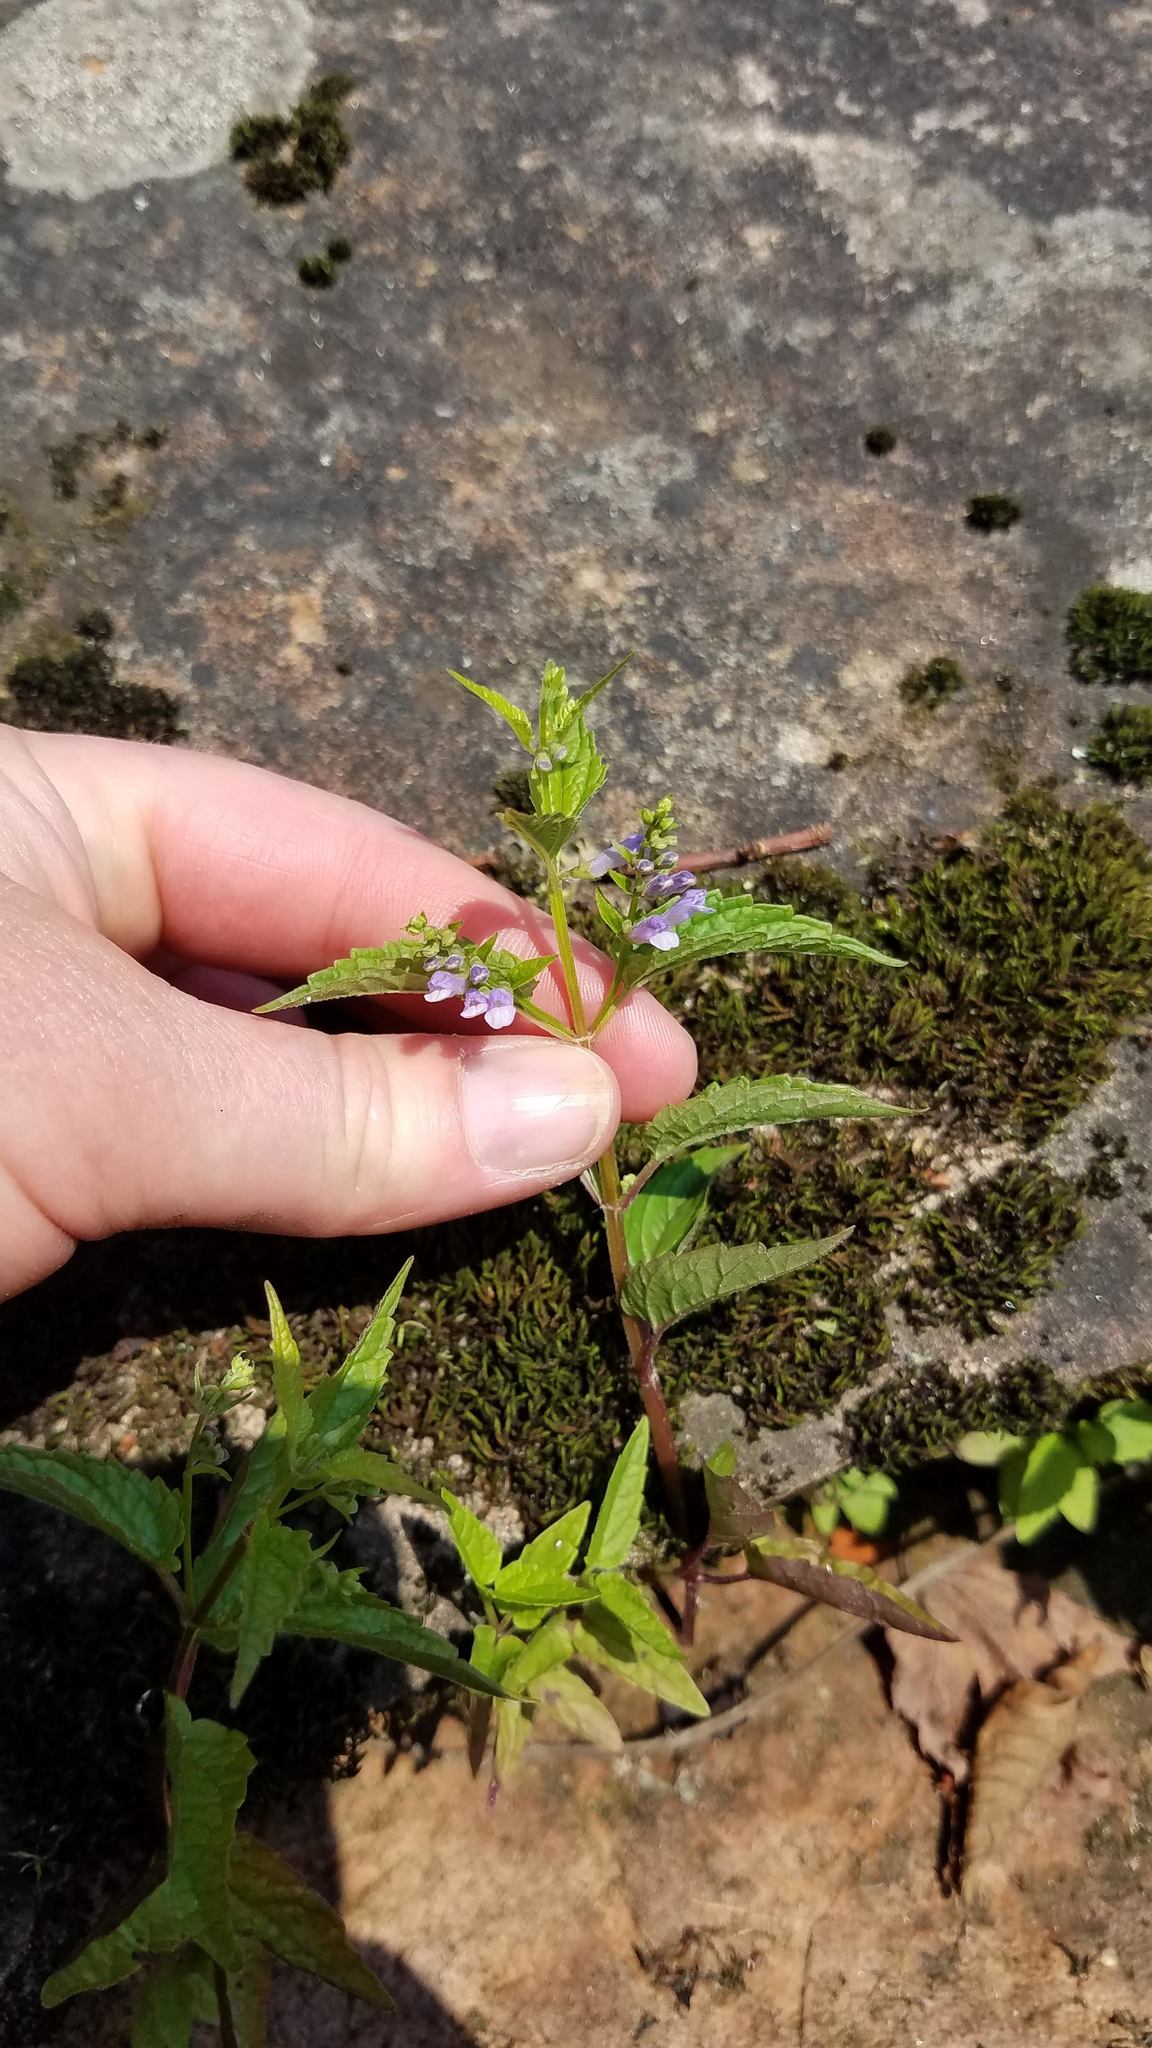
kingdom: Plantae
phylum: Tracheophyta
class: Magnoliopsida
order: Lamiales
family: Lamiaceae
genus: Scutellaria
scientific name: Scutellaria lateriflora
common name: Blue skullcap
